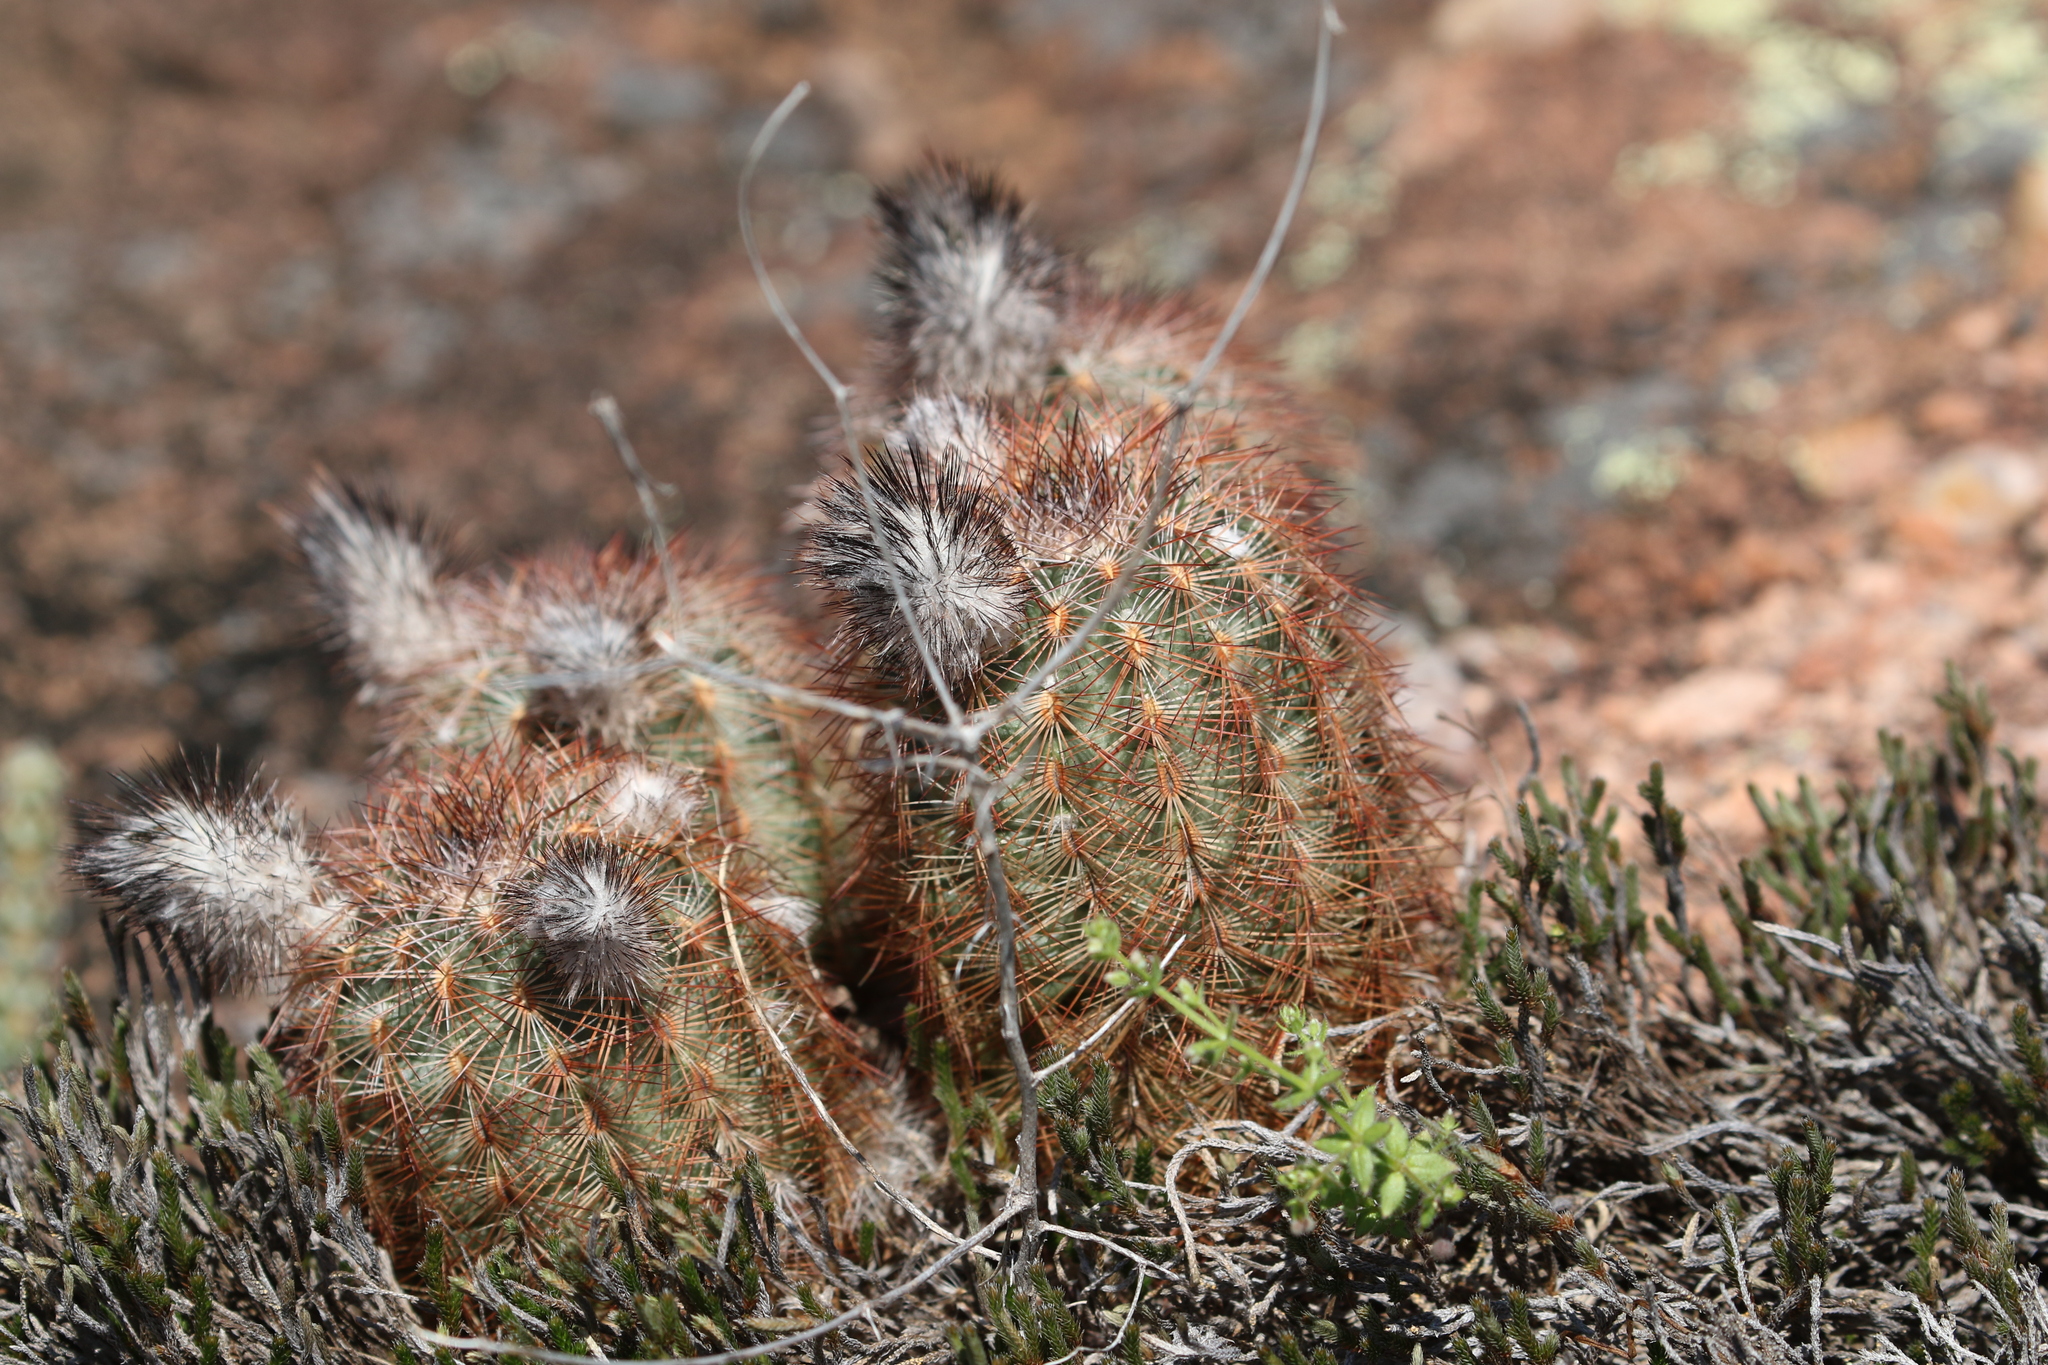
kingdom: Plantae
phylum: Tracheophyta
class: Magnoliopsida
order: Caryophyllales
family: Cactaceae
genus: Echinocereus
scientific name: Echinocereus reichenbachii
